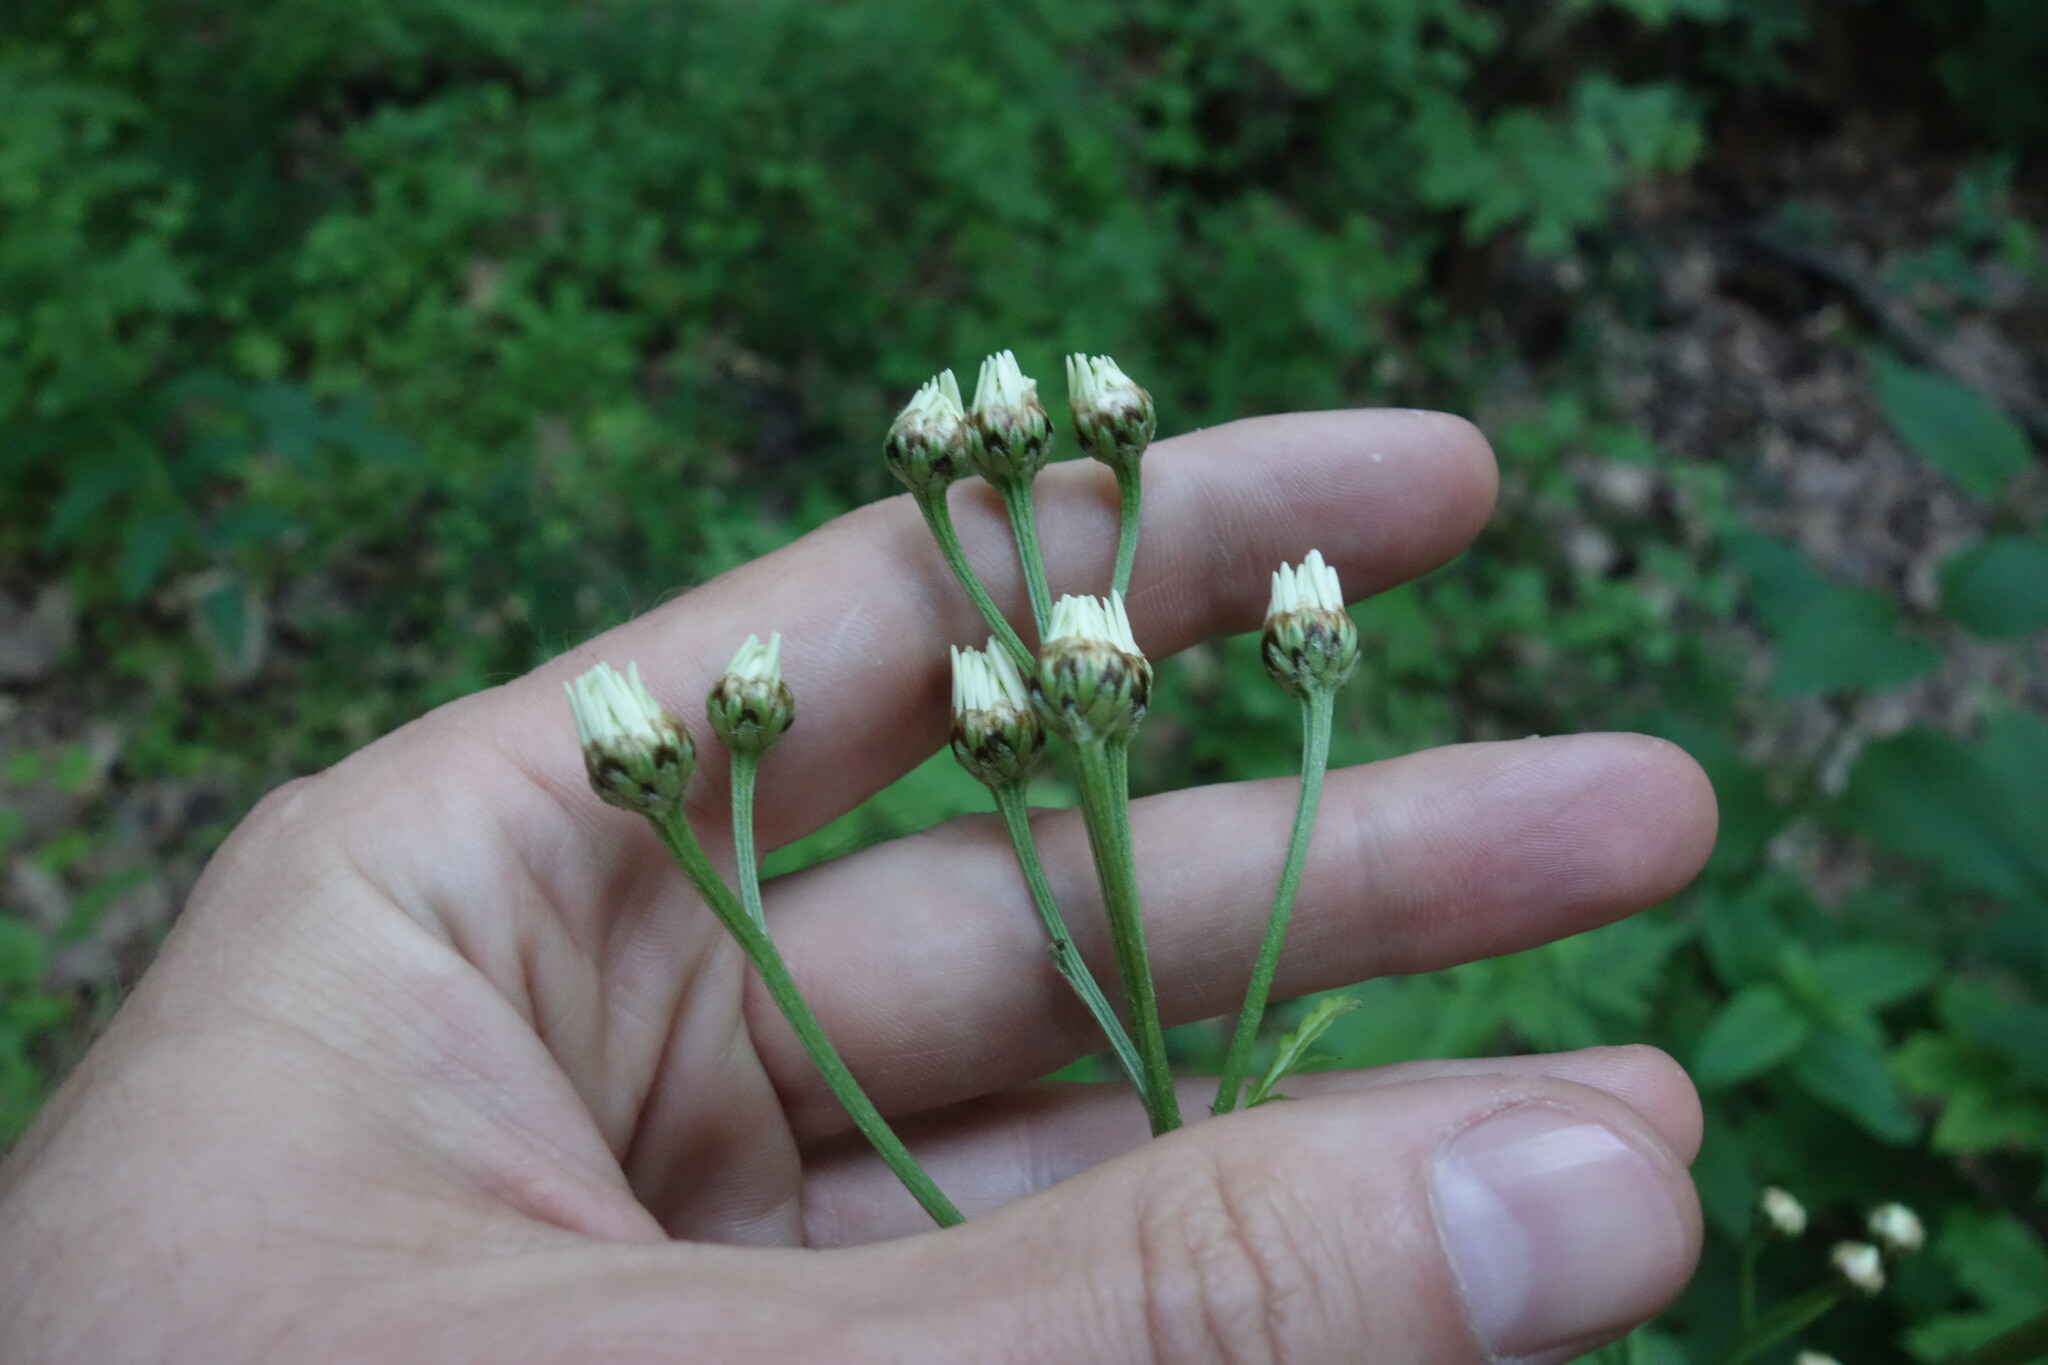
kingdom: Plantae
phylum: Tracheophyta
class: Magnoliopsida
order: Asterales
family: Asteraceae
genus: Tanacetum
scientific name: Tanacetum corymbosum
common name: Scentless feverfew
